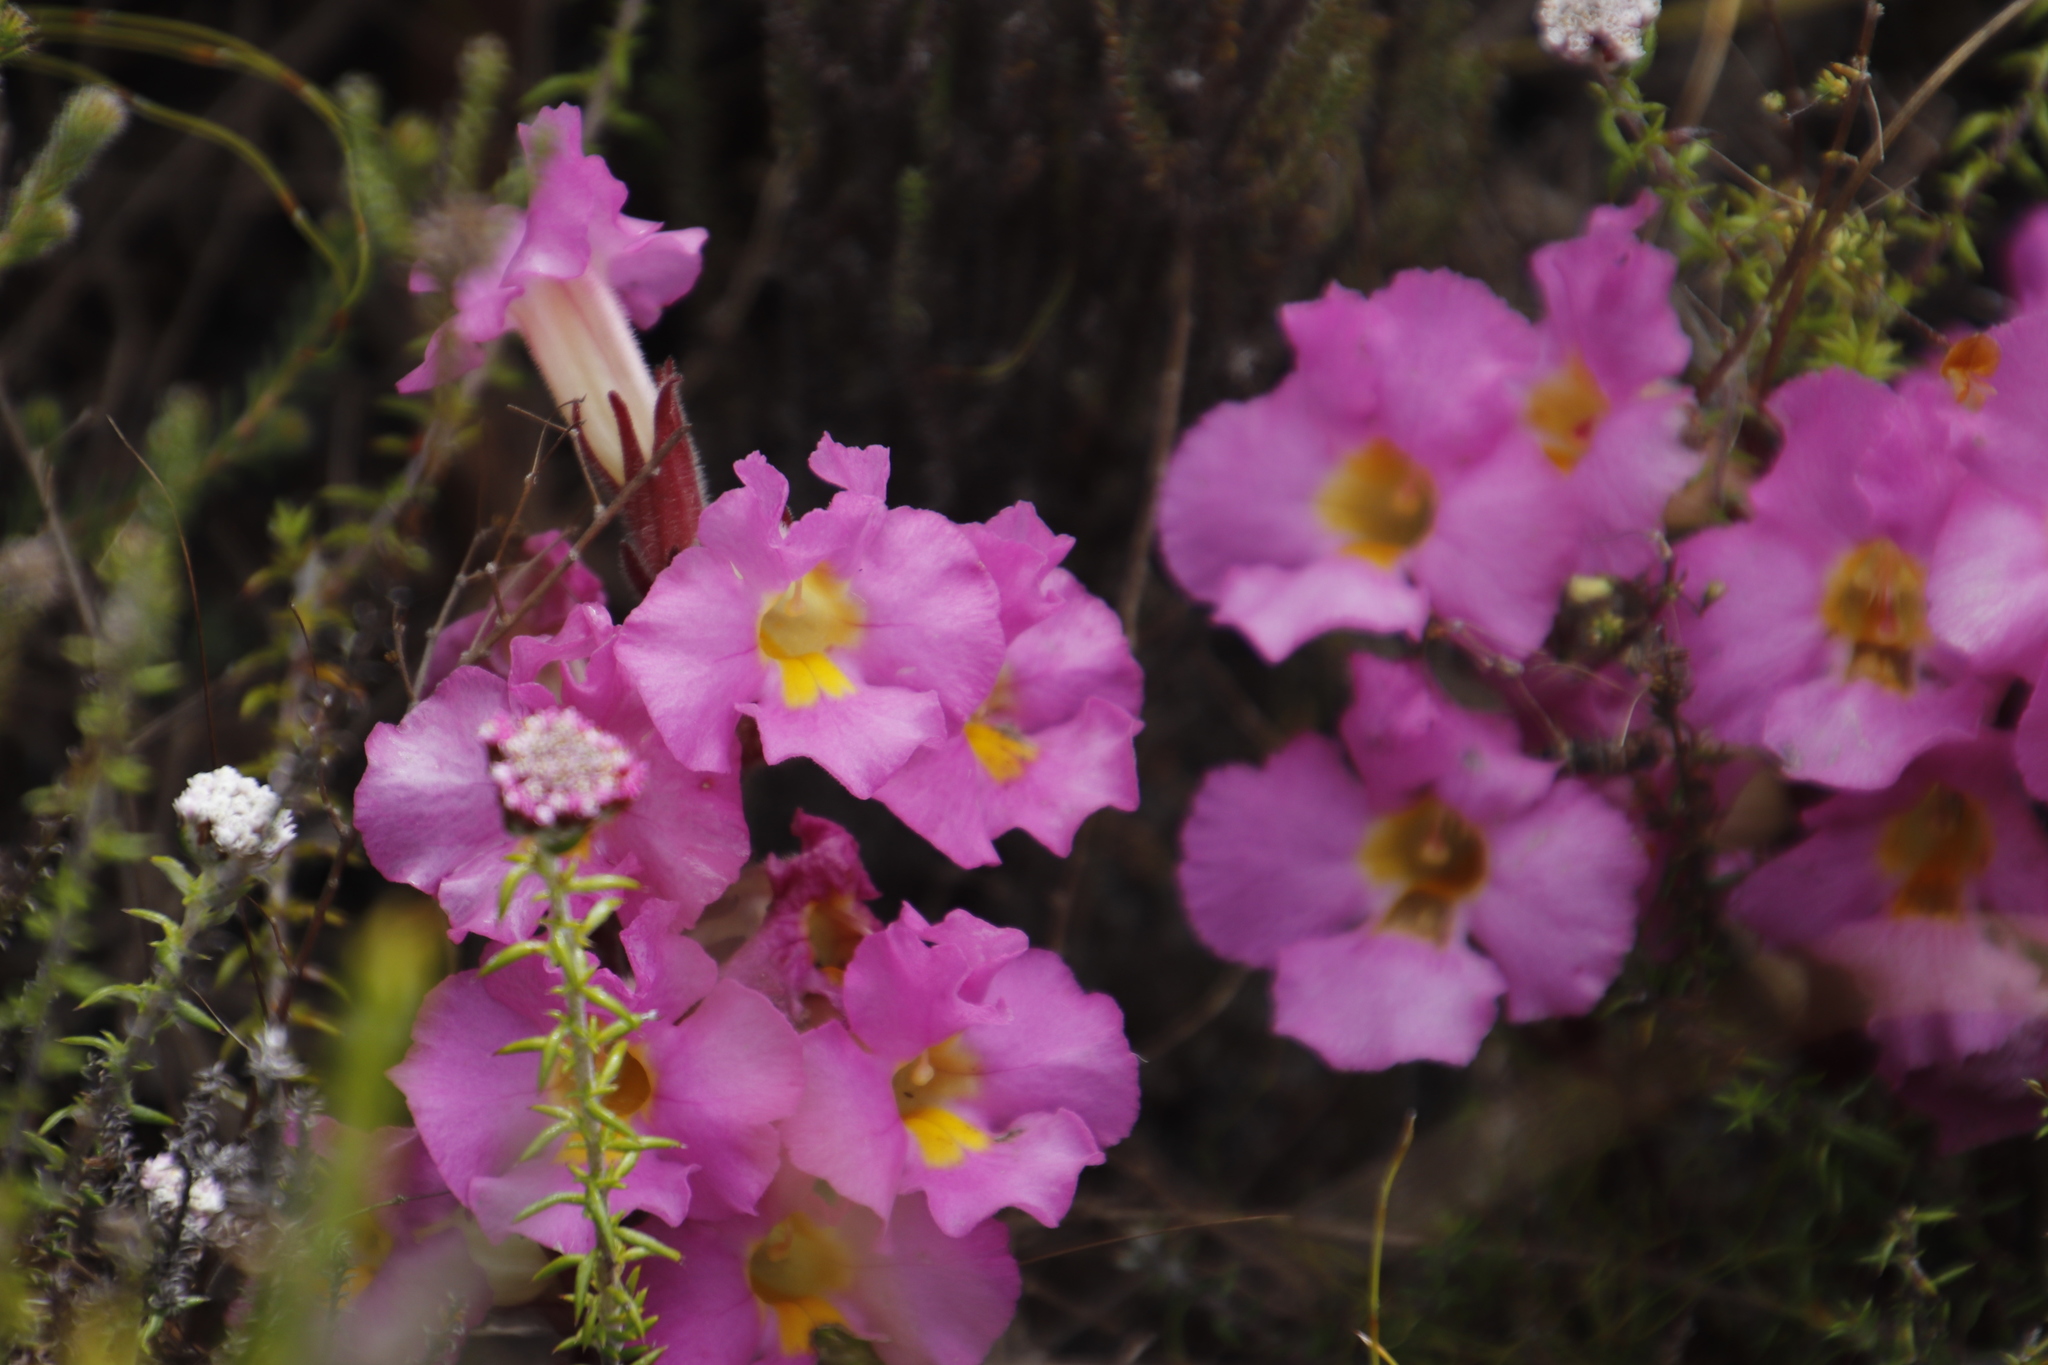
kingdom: Plantae
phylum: Tracheophyta
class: Magnoliopsida
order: Lamiales
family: Orobanchaceae
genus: Harveya
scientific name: Harveya purpurea
